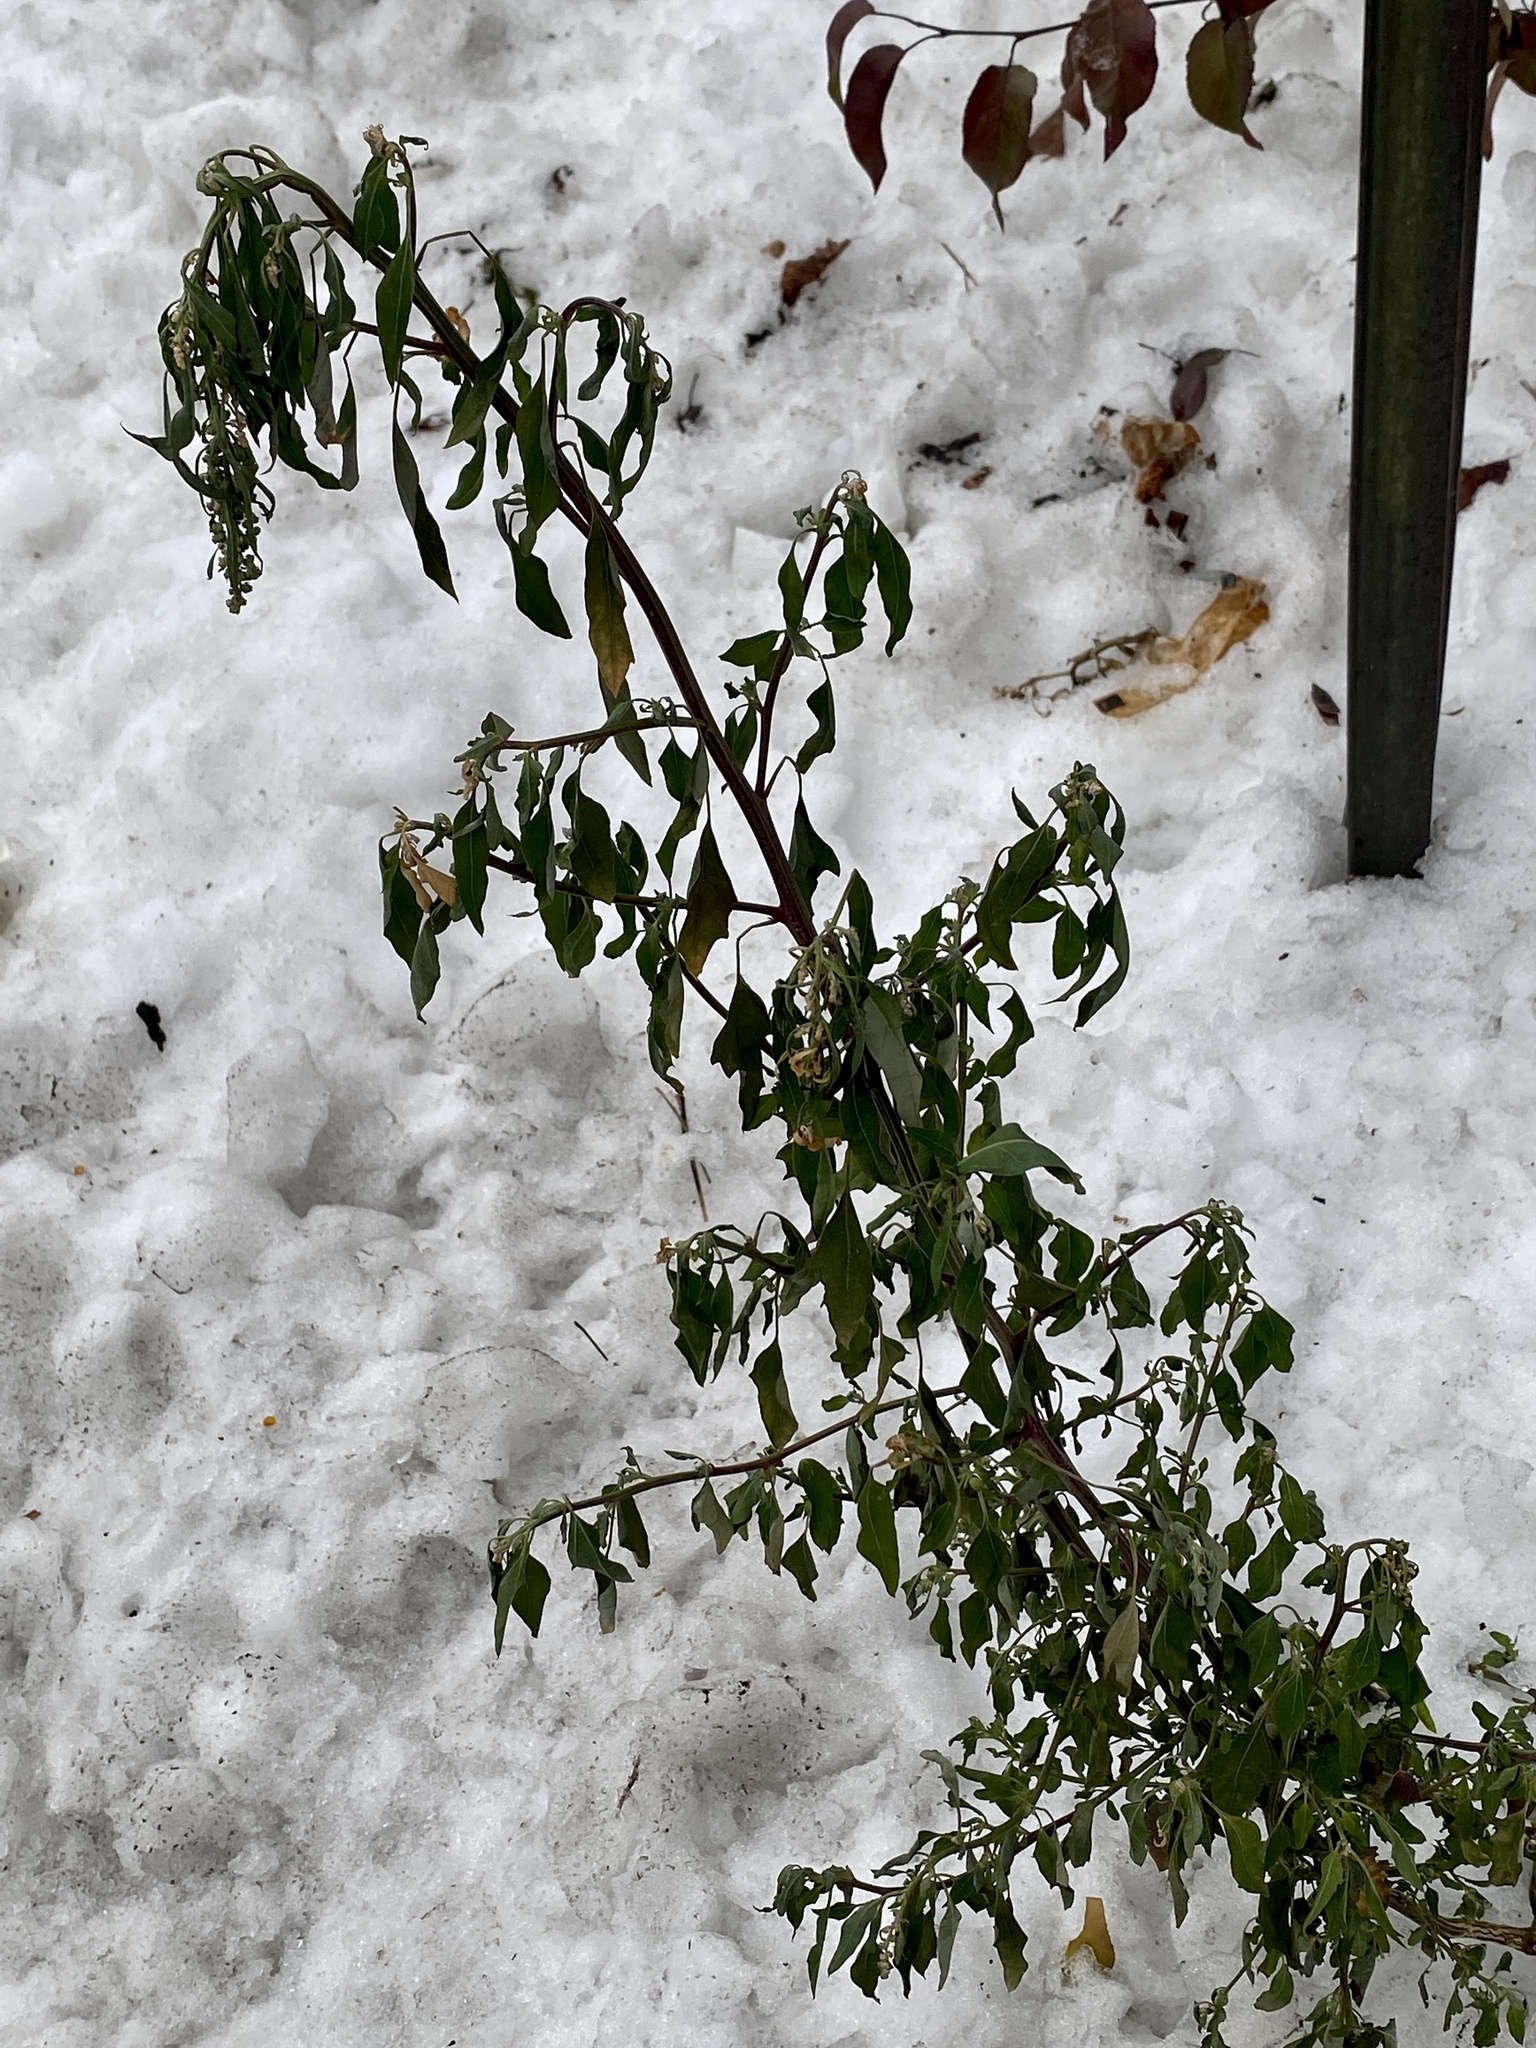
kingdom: Plantae
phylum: Tracheophyta
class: Magnoliopsida
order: Caryophyllales
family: Amaranthaceae
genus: Chenopodium
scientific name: Chenopodium album
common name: Fat-hen
